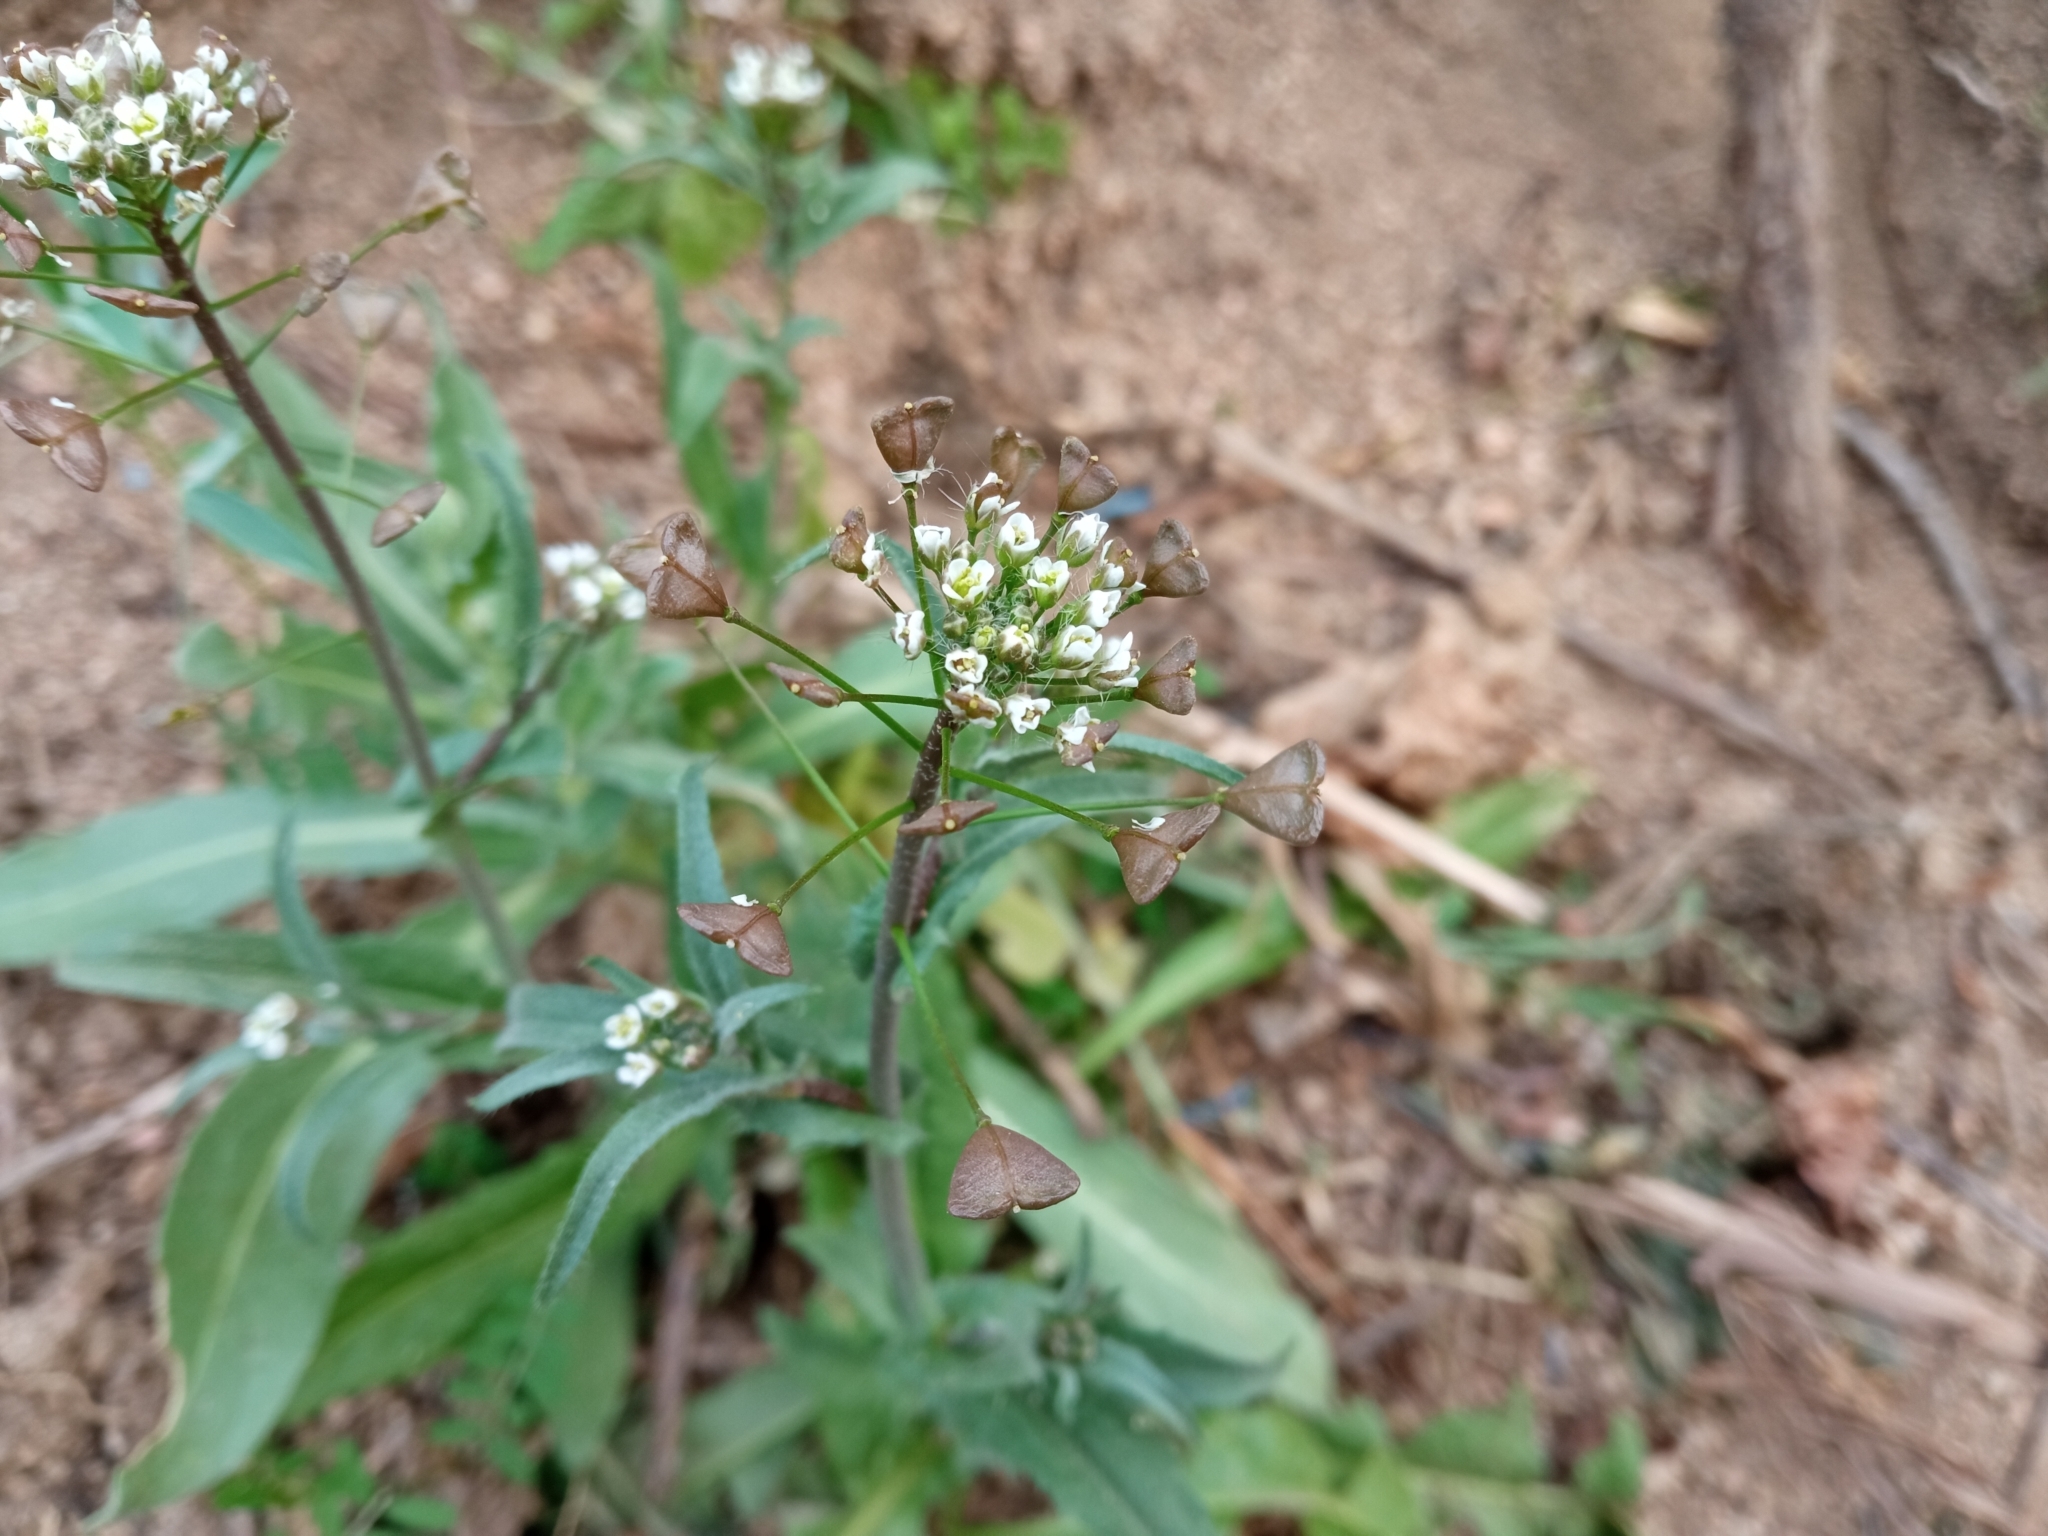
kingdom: Plantae
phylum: Tracheophyta
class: Magnoliopsida
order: Brassicales
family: Brassicaceae
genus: Capsella
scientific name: Capsella bursa-pastoris
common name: Shepherd's purse
